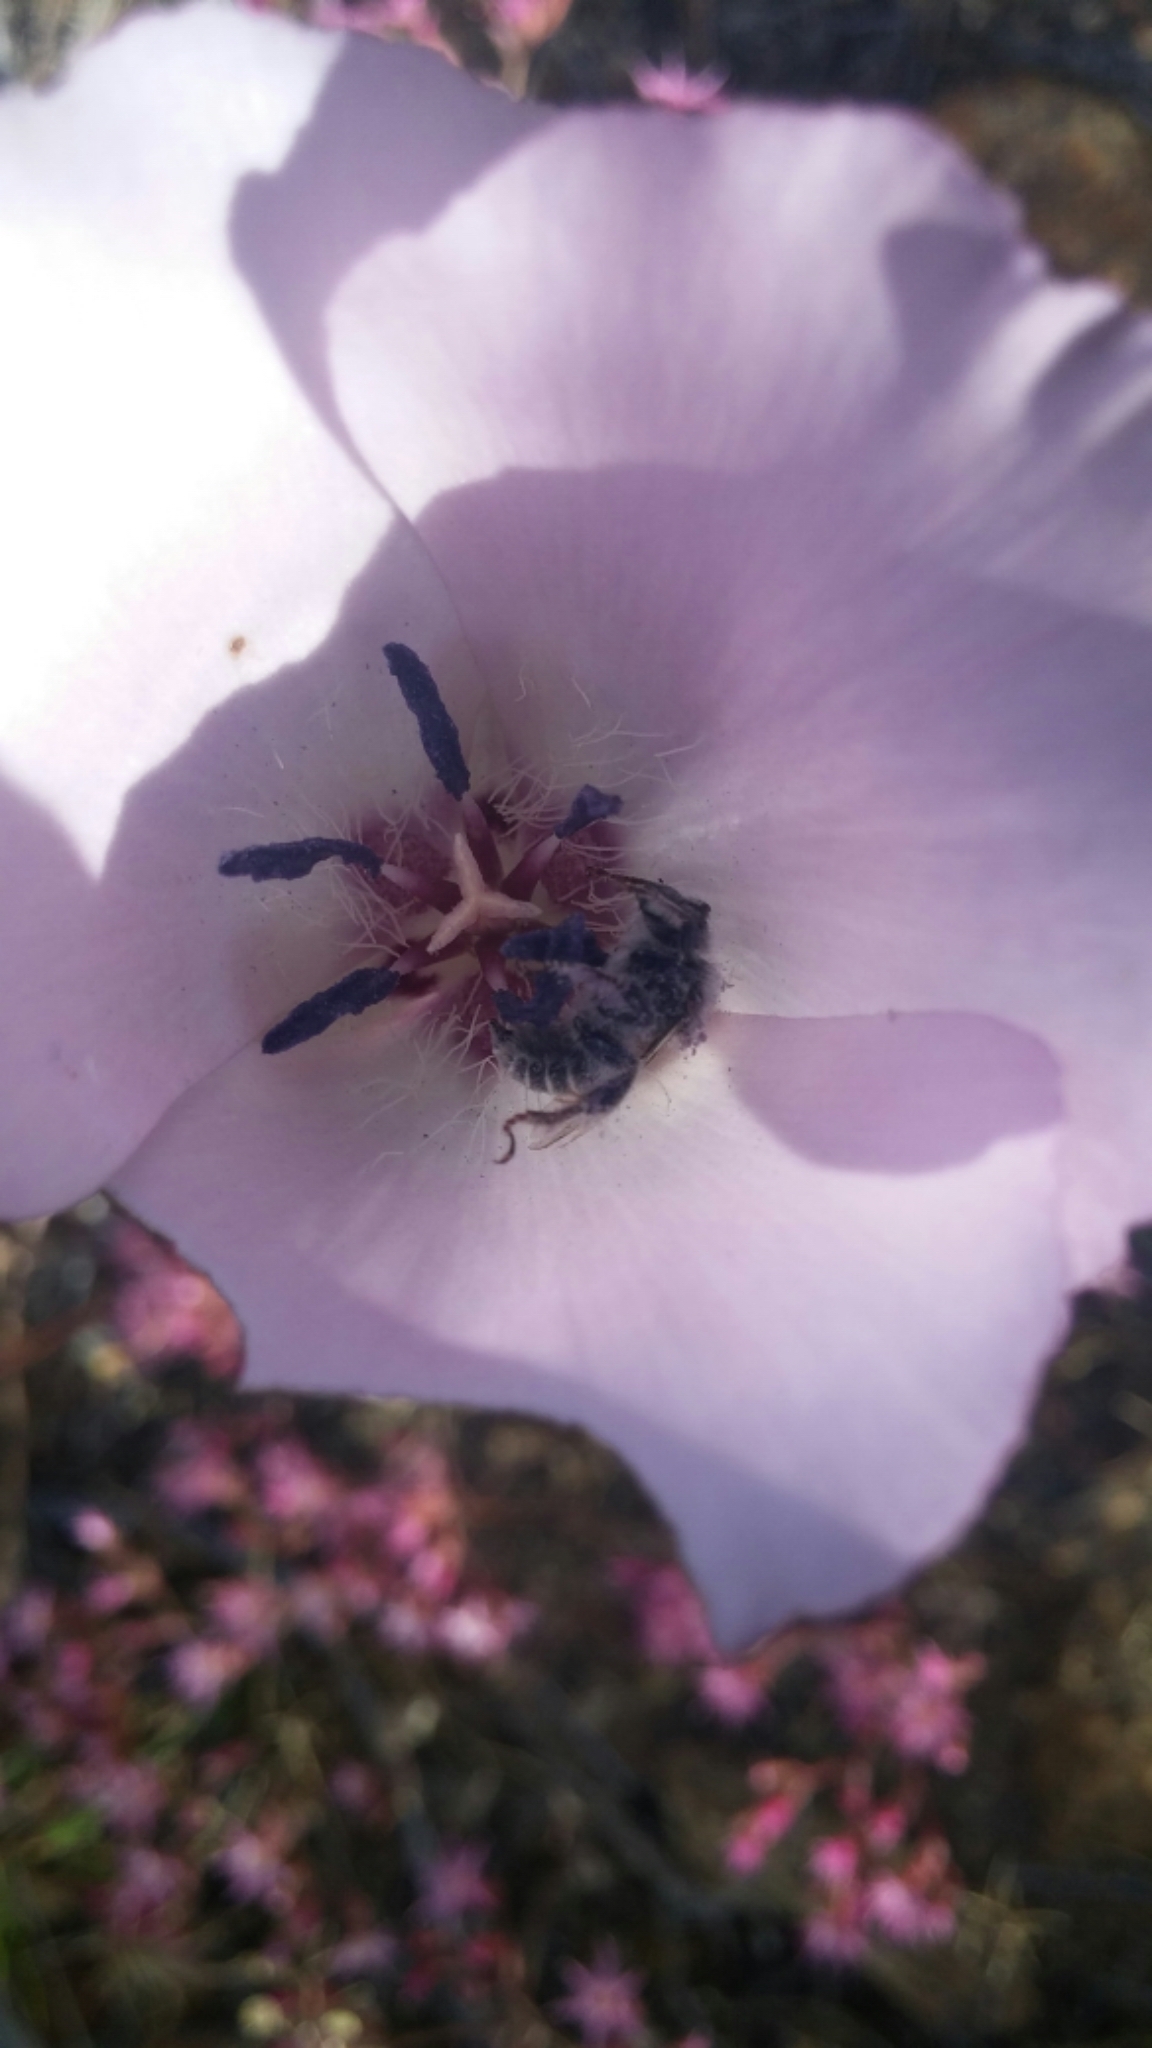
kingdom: Animalia
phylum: Arthropoda
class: Insecta
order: Hymenoptera
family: Apidae
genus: Diadasia
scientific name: Diadasia
